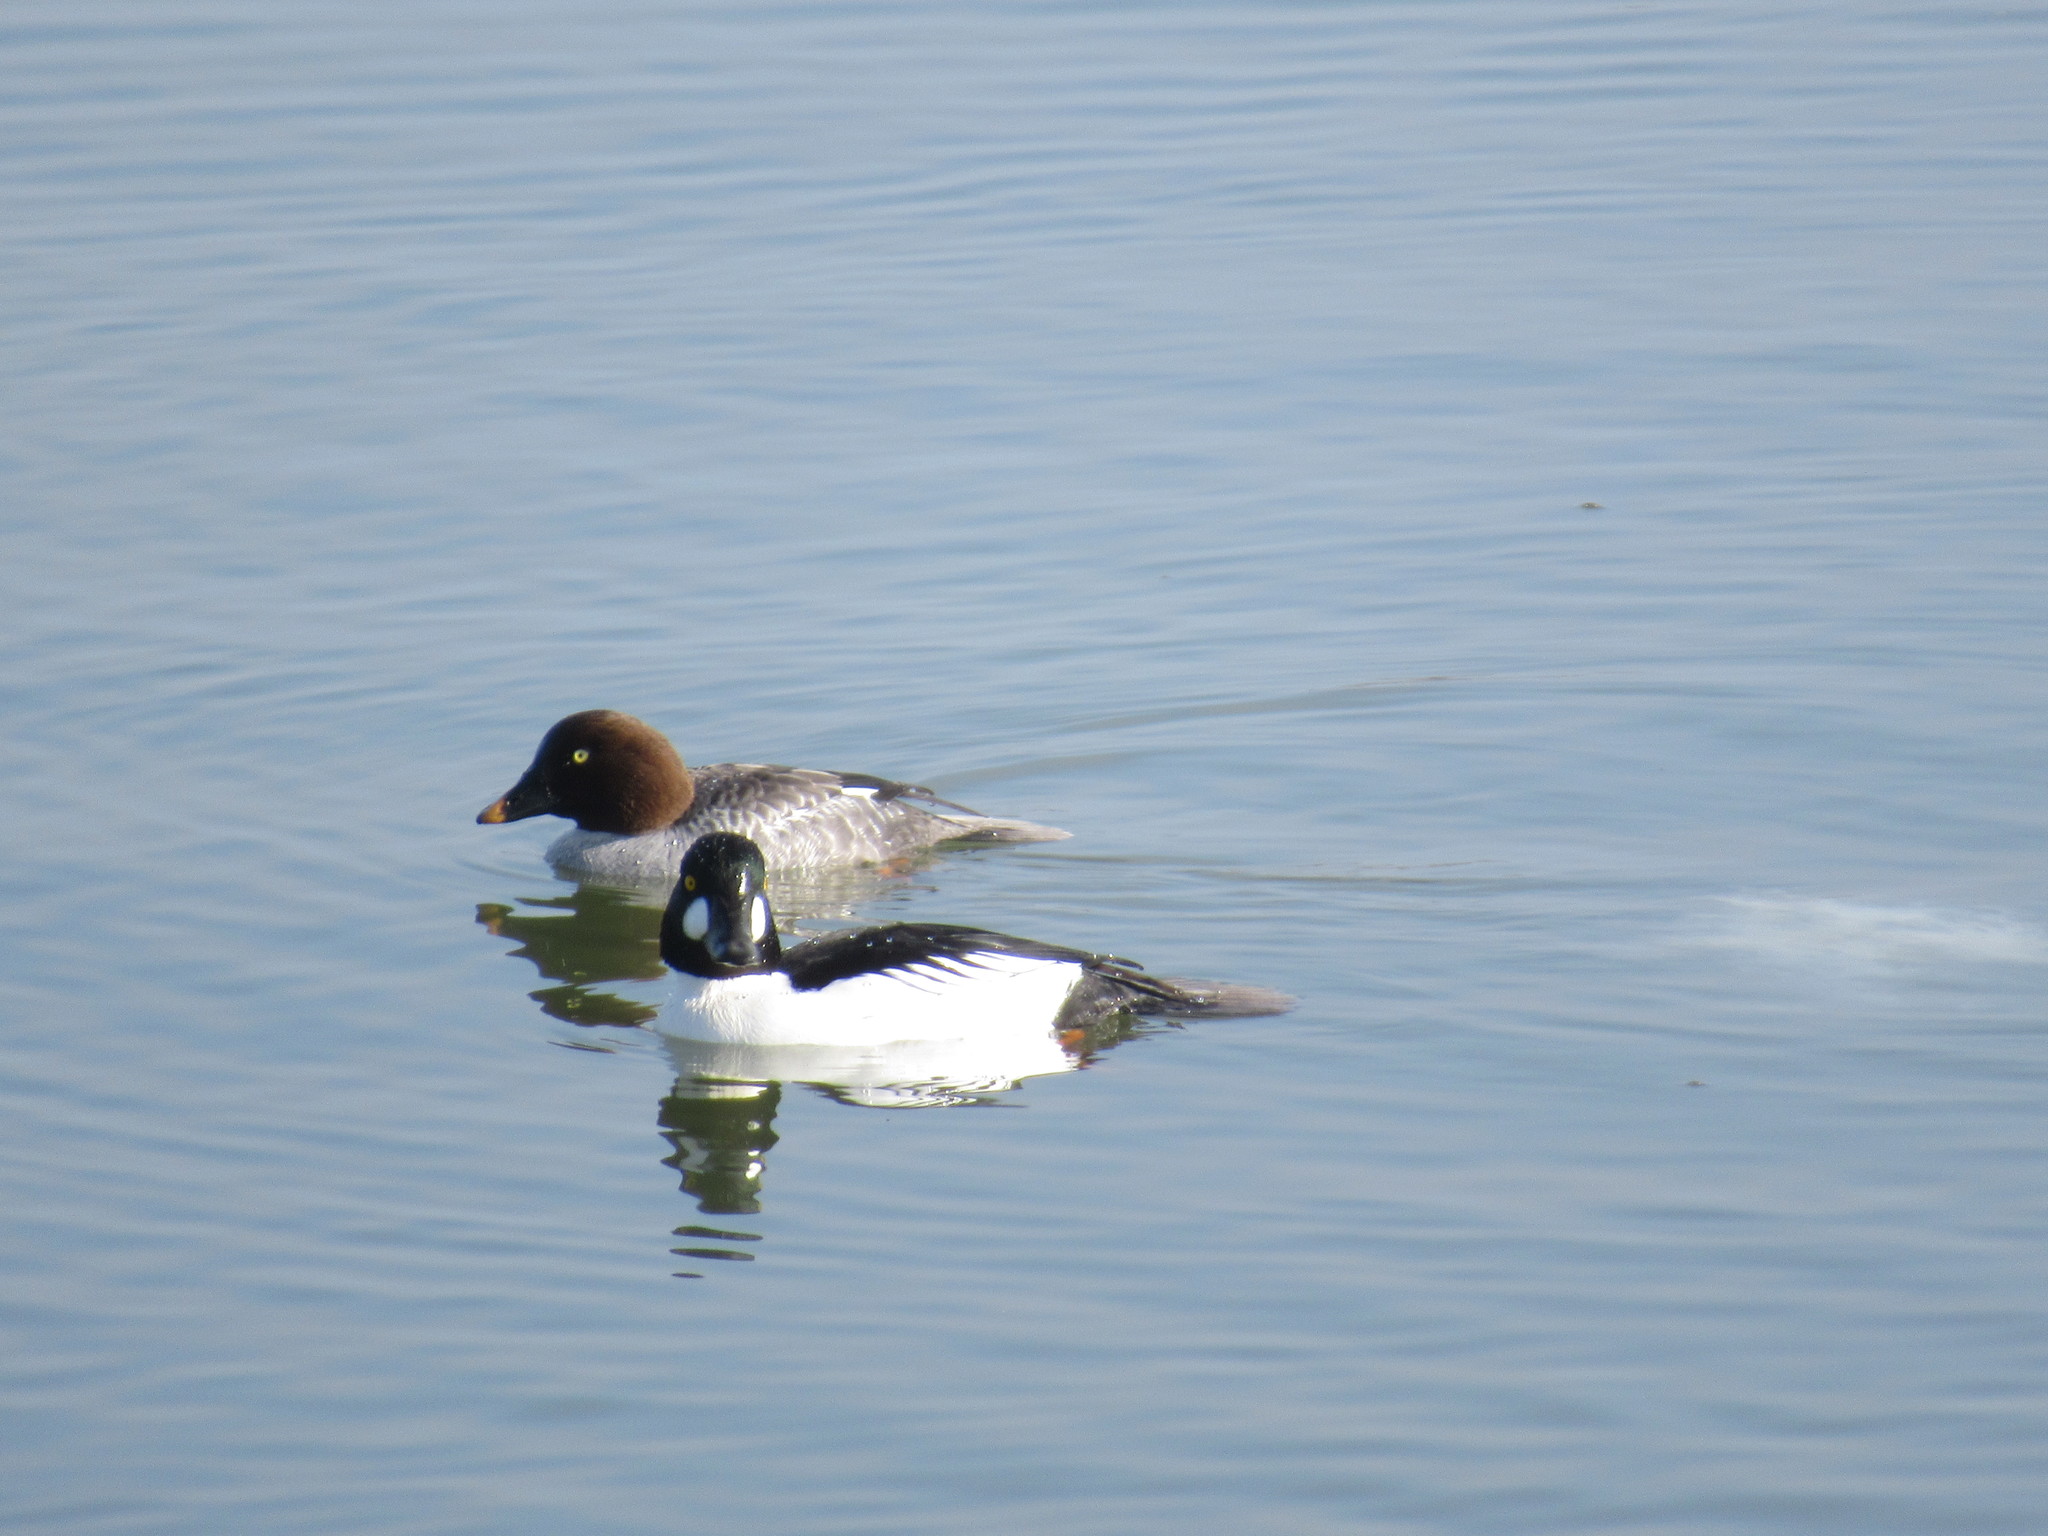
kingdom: Animalia
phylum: Chordata
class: Aves
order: Anseriformes
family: Anatidae
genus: Bucephala
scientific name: Bucephala clangula
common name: Common goldeneye
